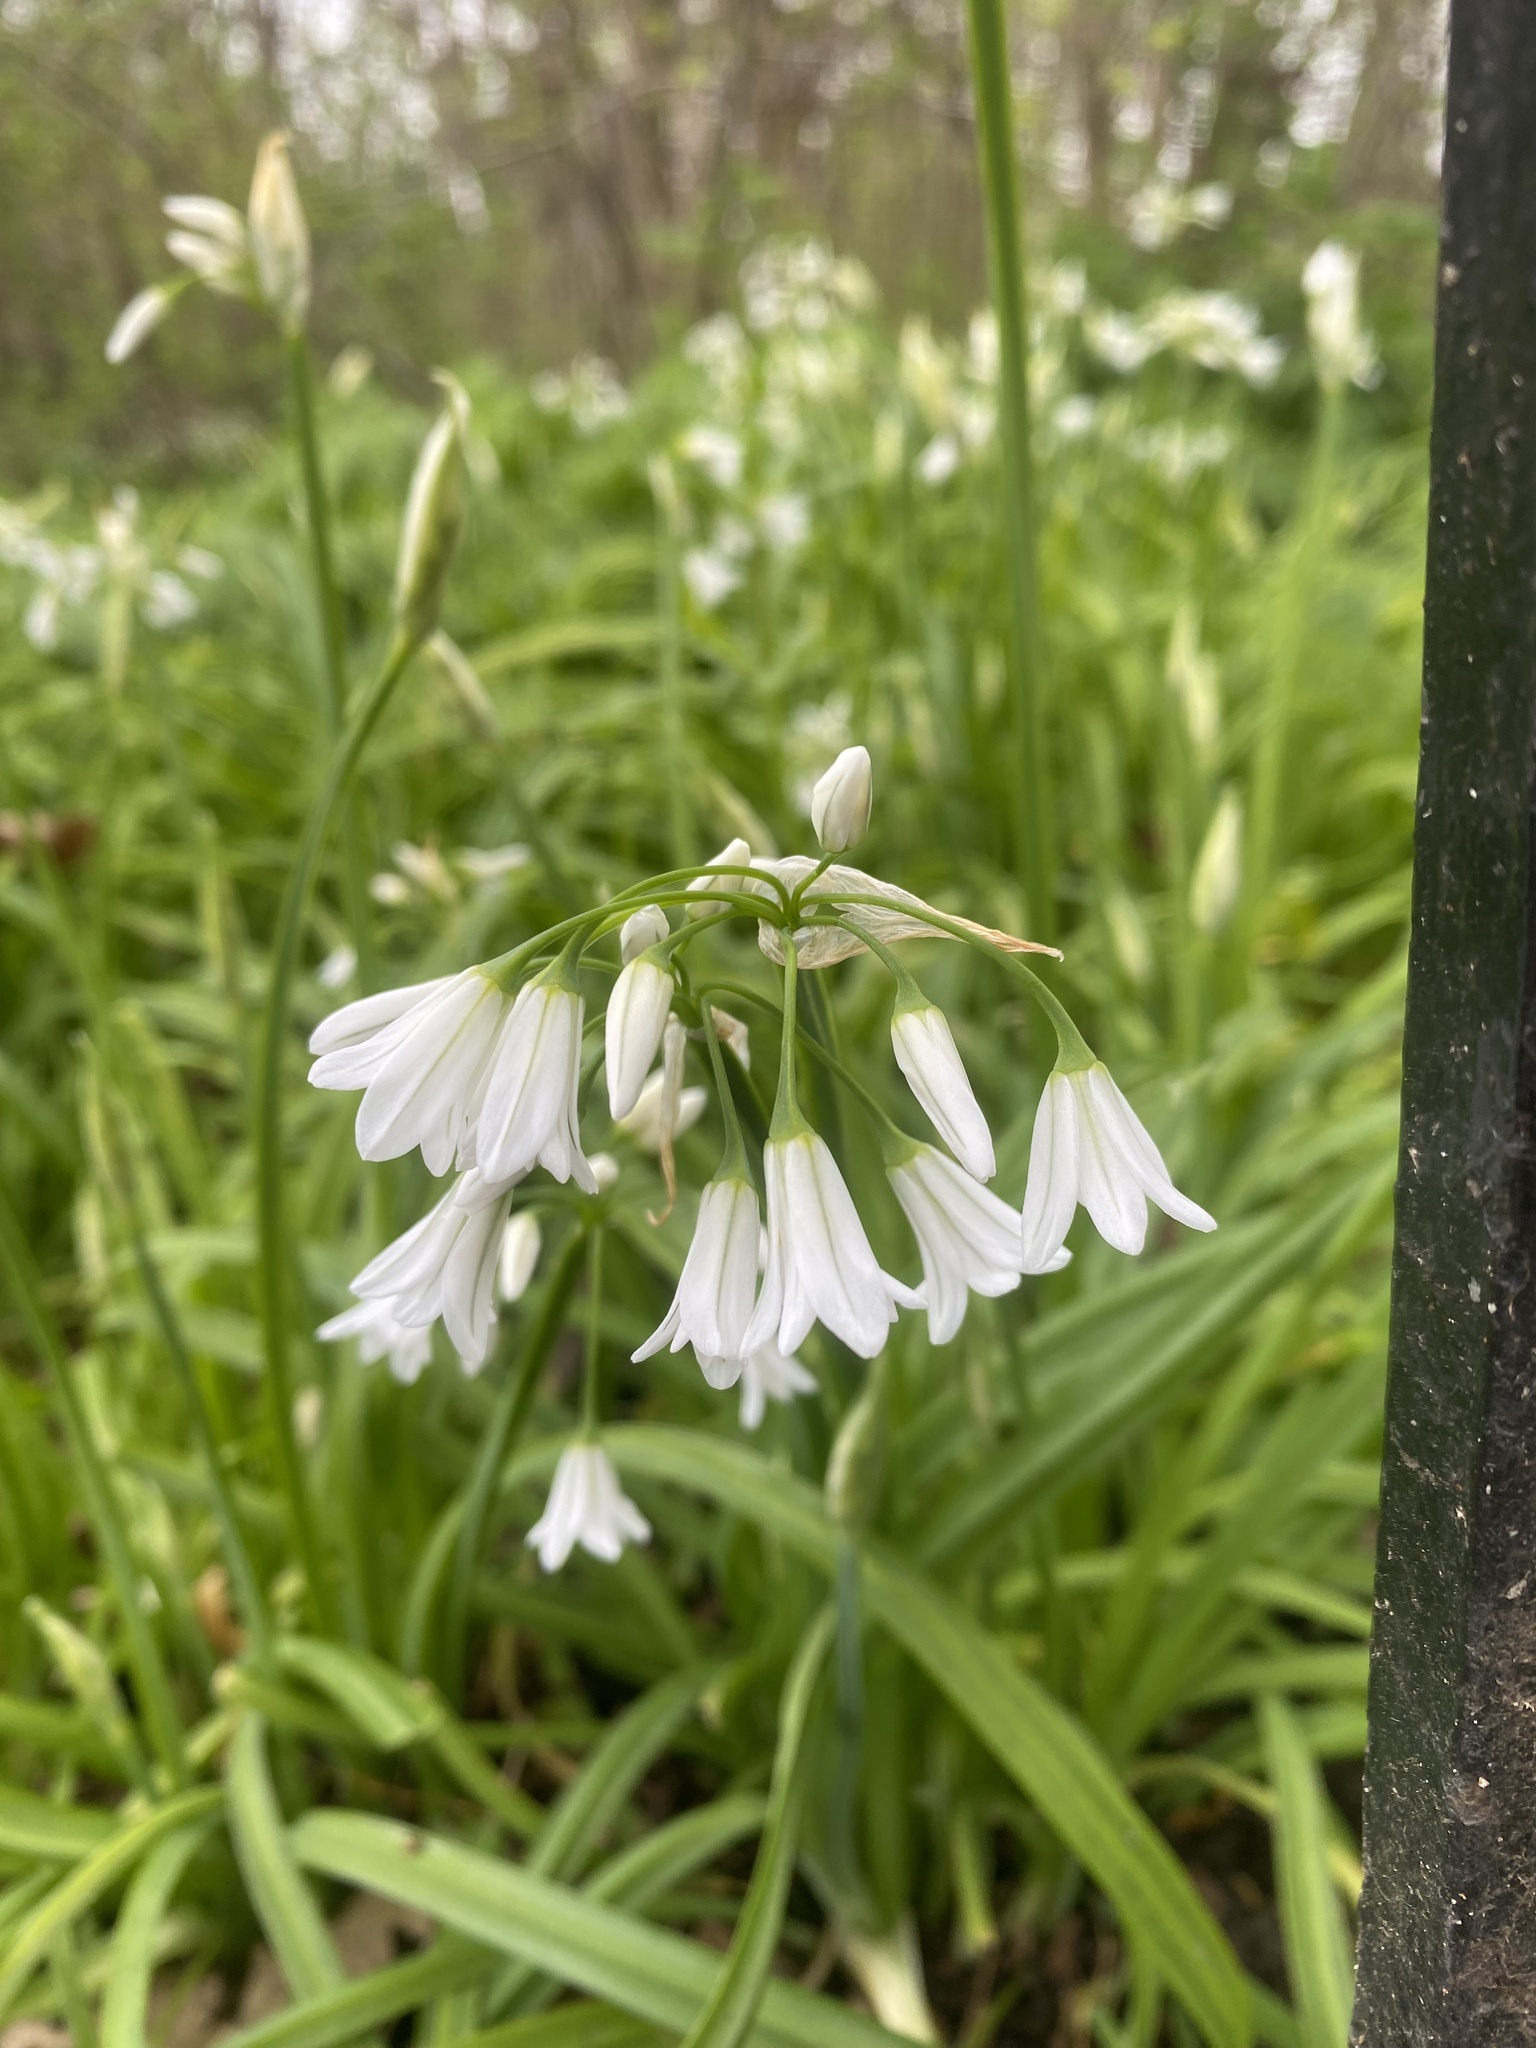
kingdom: Plantae
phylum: Tracheophyta
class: Liliopsida
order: Asparagales
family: Amaryllidaceae
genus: Allium
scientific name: Allium triquetrum
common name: Three-cornered garlic
